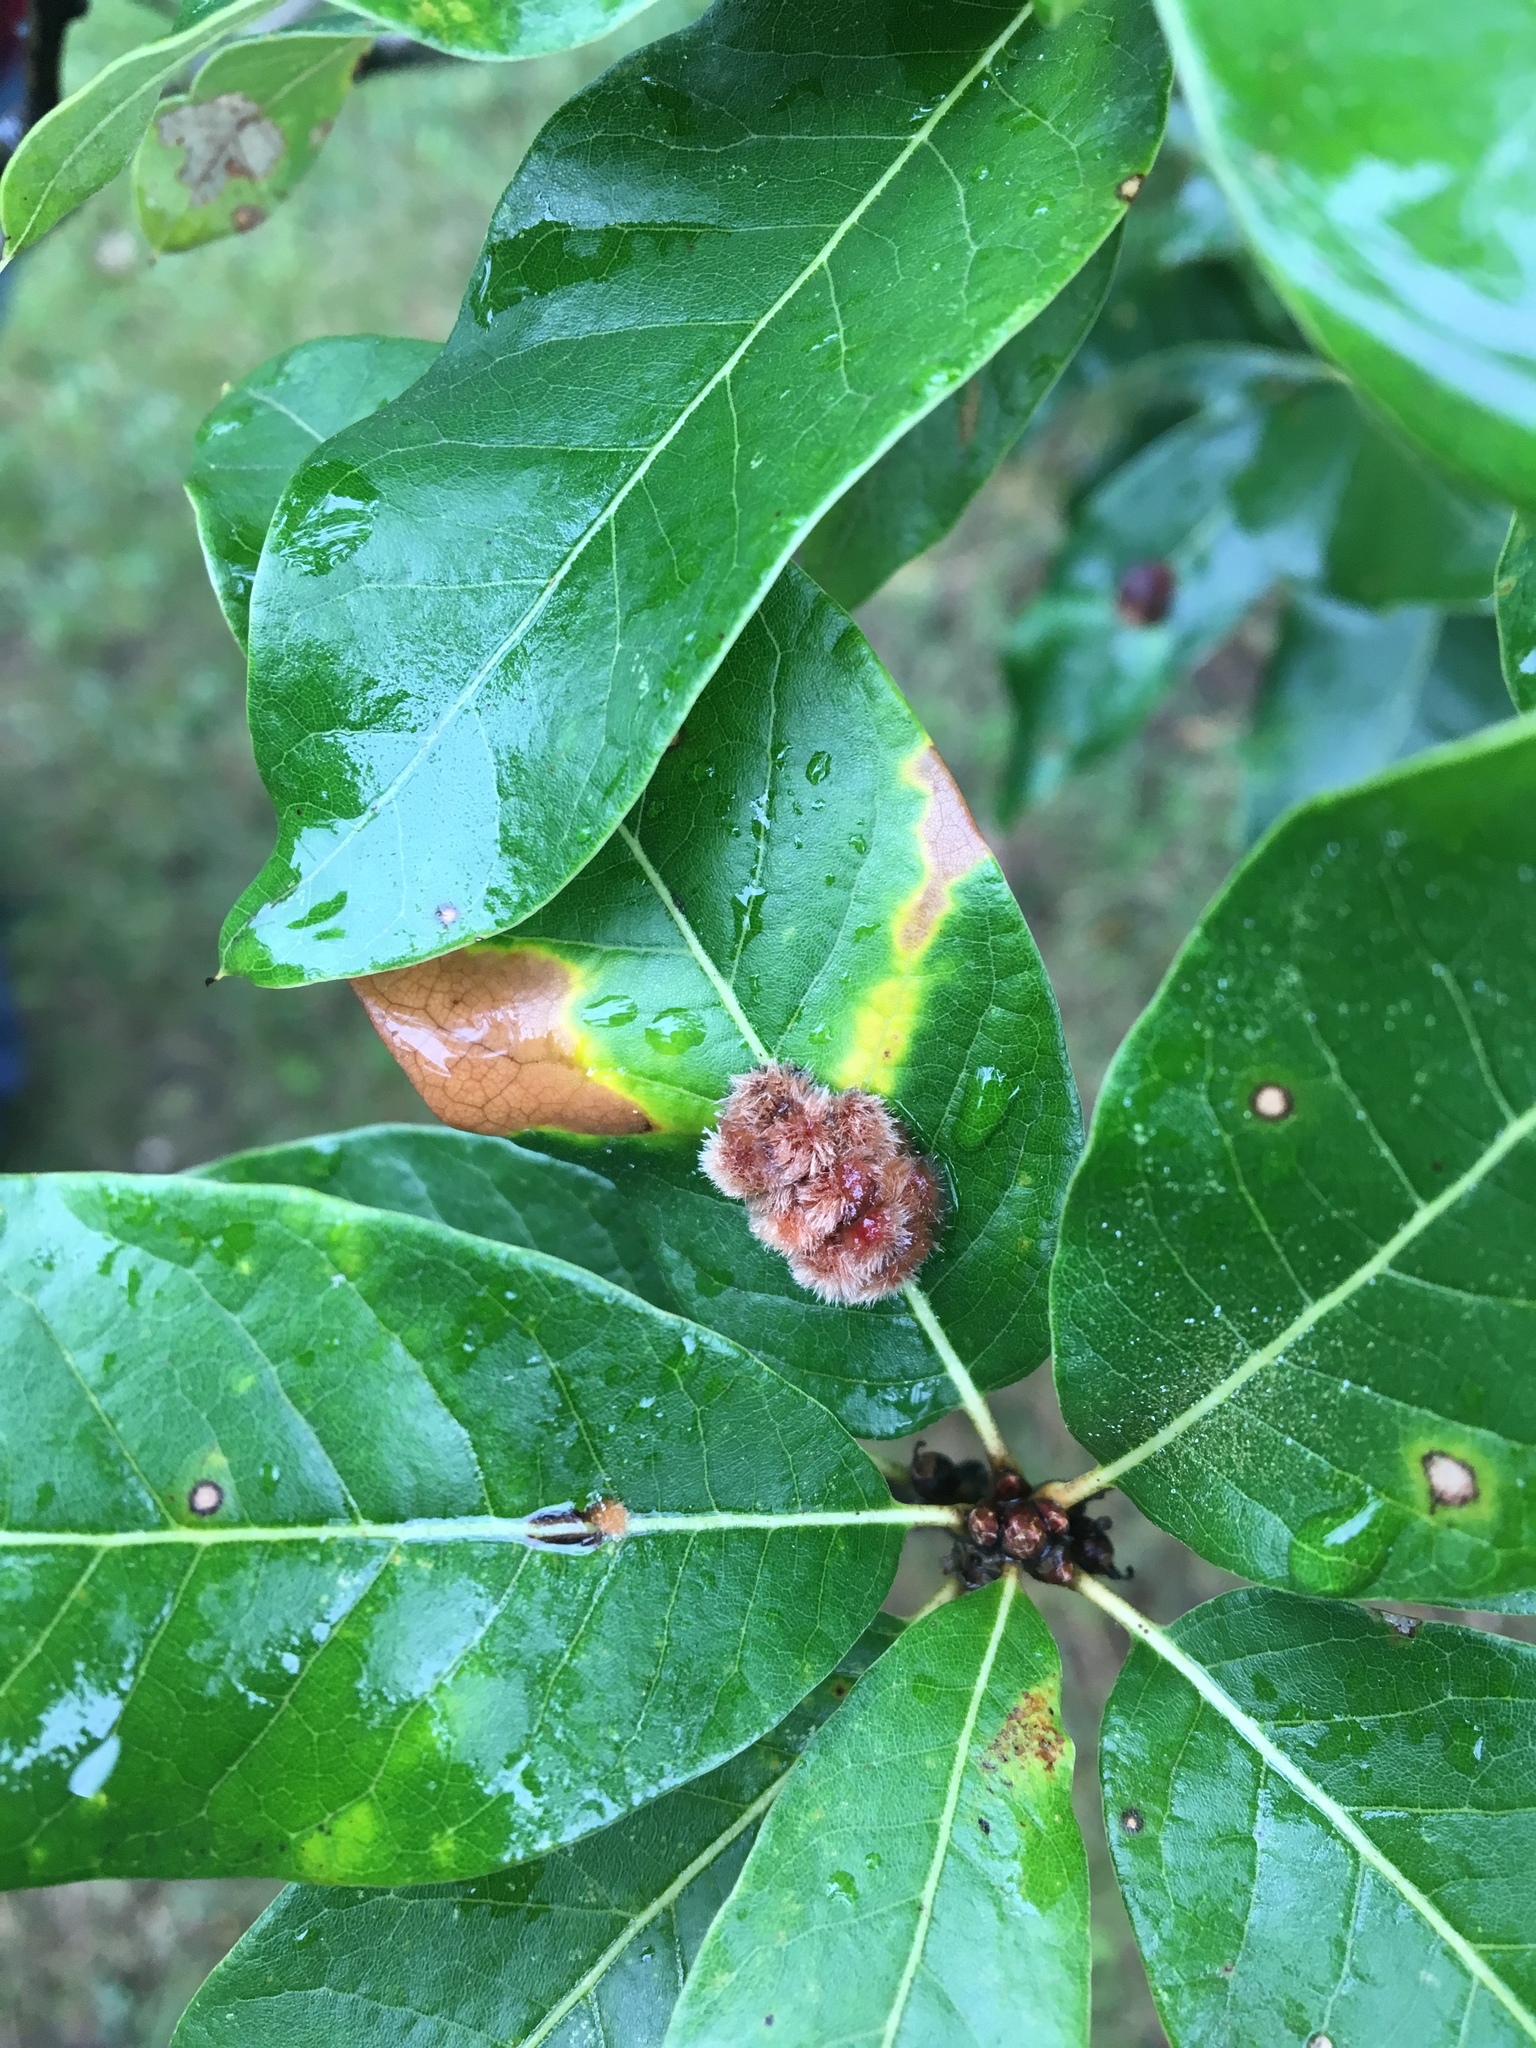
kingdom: Animalia
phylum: Arthropoda
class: Insecta
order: Hymenoptera
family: Cynipidae
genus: Callirhytis
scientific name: Callirhytis
